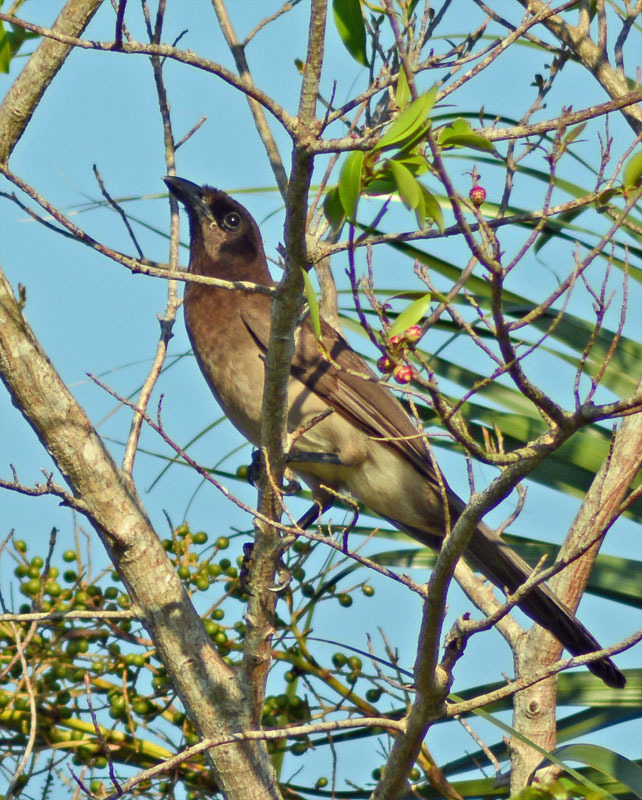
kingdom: Animalia
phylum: Chordata
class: Aves
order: Passeriformes
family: Corvidae
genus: Psilorhinus
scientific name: Psilorhinus morio
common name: Brown jay
